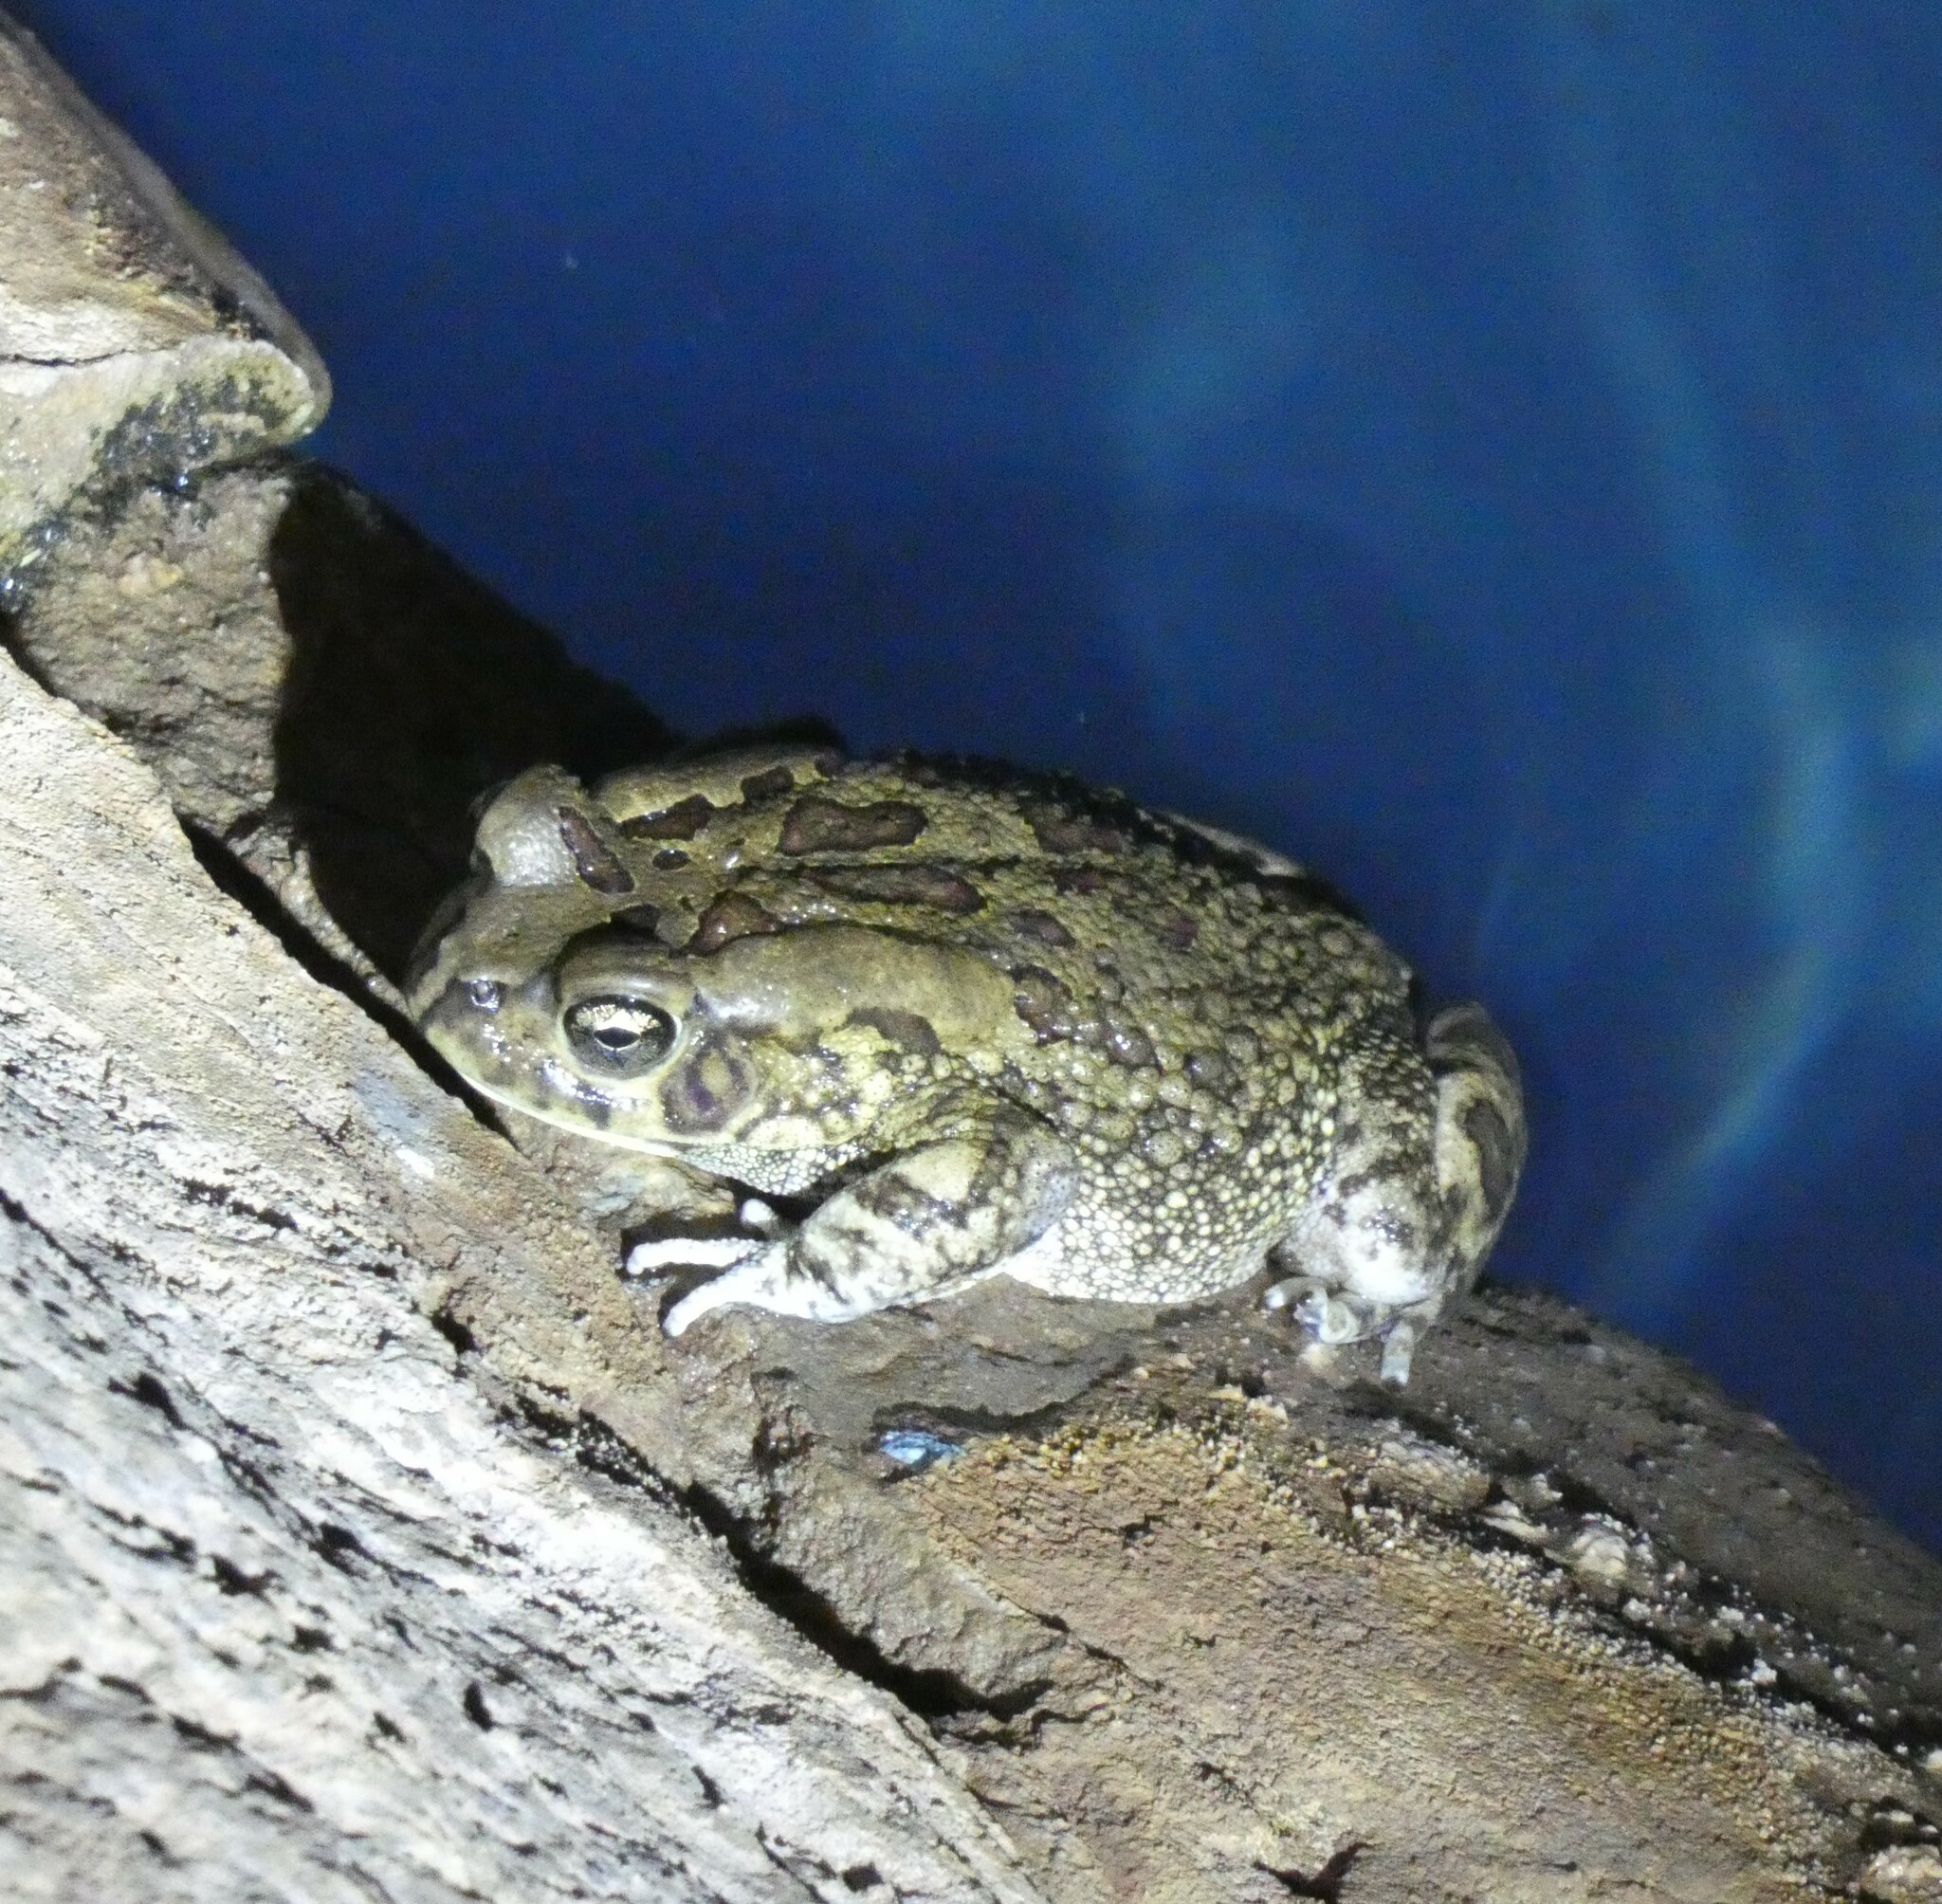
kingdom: Animalia
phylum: Chordata
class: Amphibia
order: Anura
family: Bufonidae
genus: Sclerophrys
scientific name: Sclerophrys garmani
